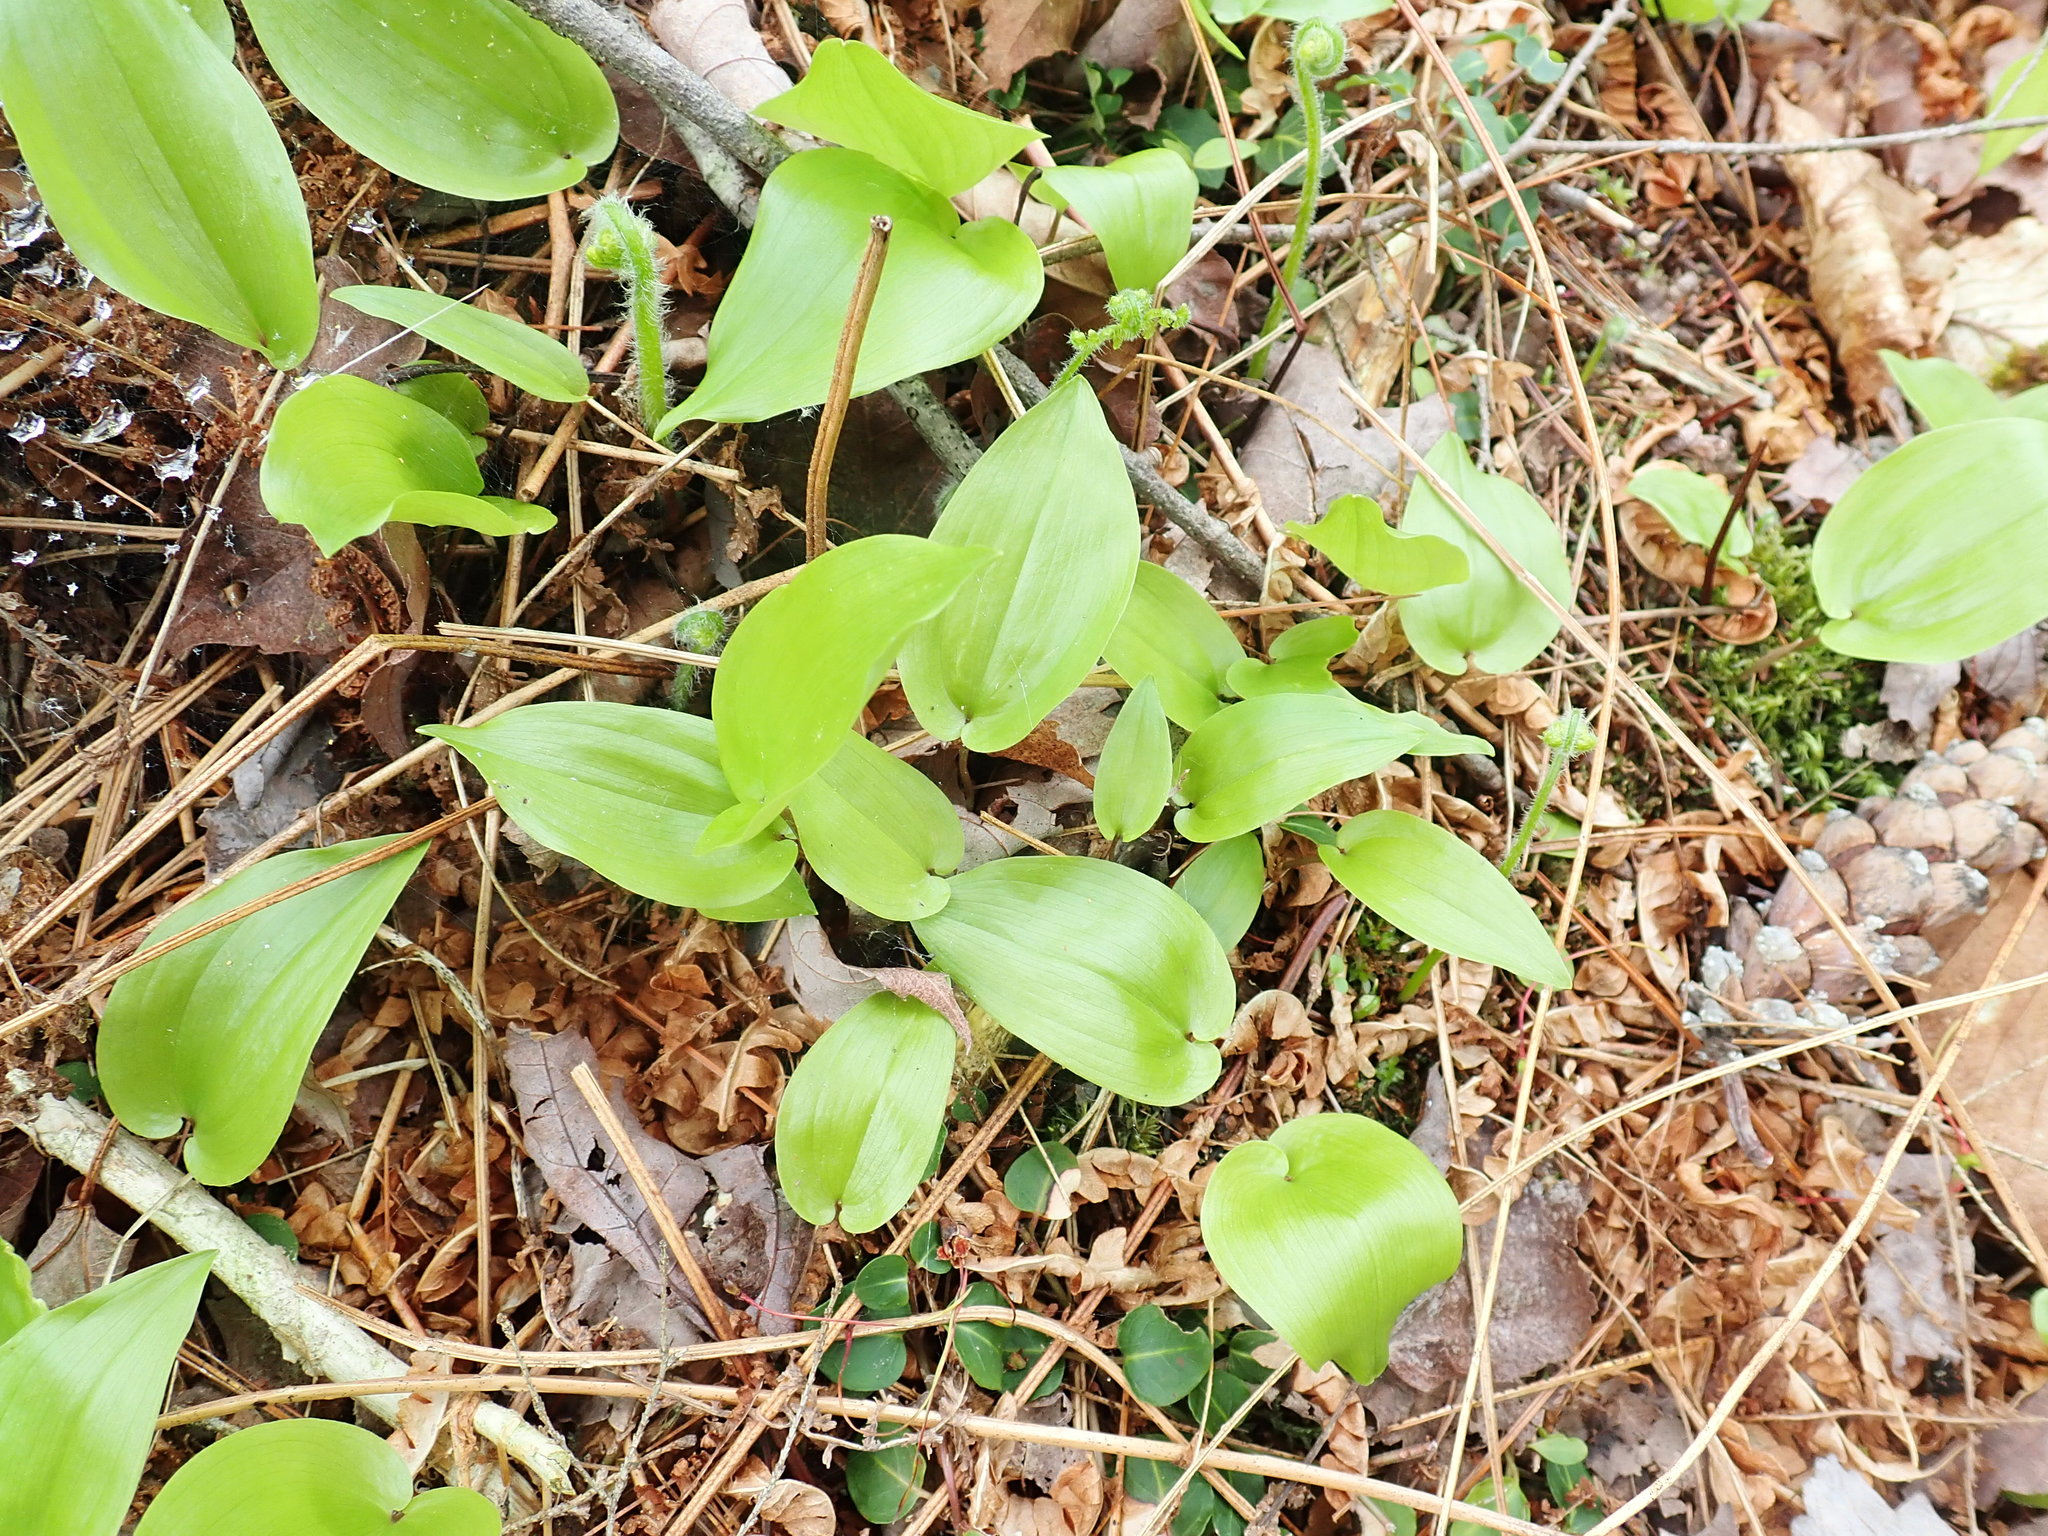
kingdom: Plantae
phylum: Tracheophyta
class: Liliopsida
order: Asparagales
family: Asparagaceae
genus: Maianthemum
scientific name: Maianthemum canadense
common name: False lily-of-the-valley
